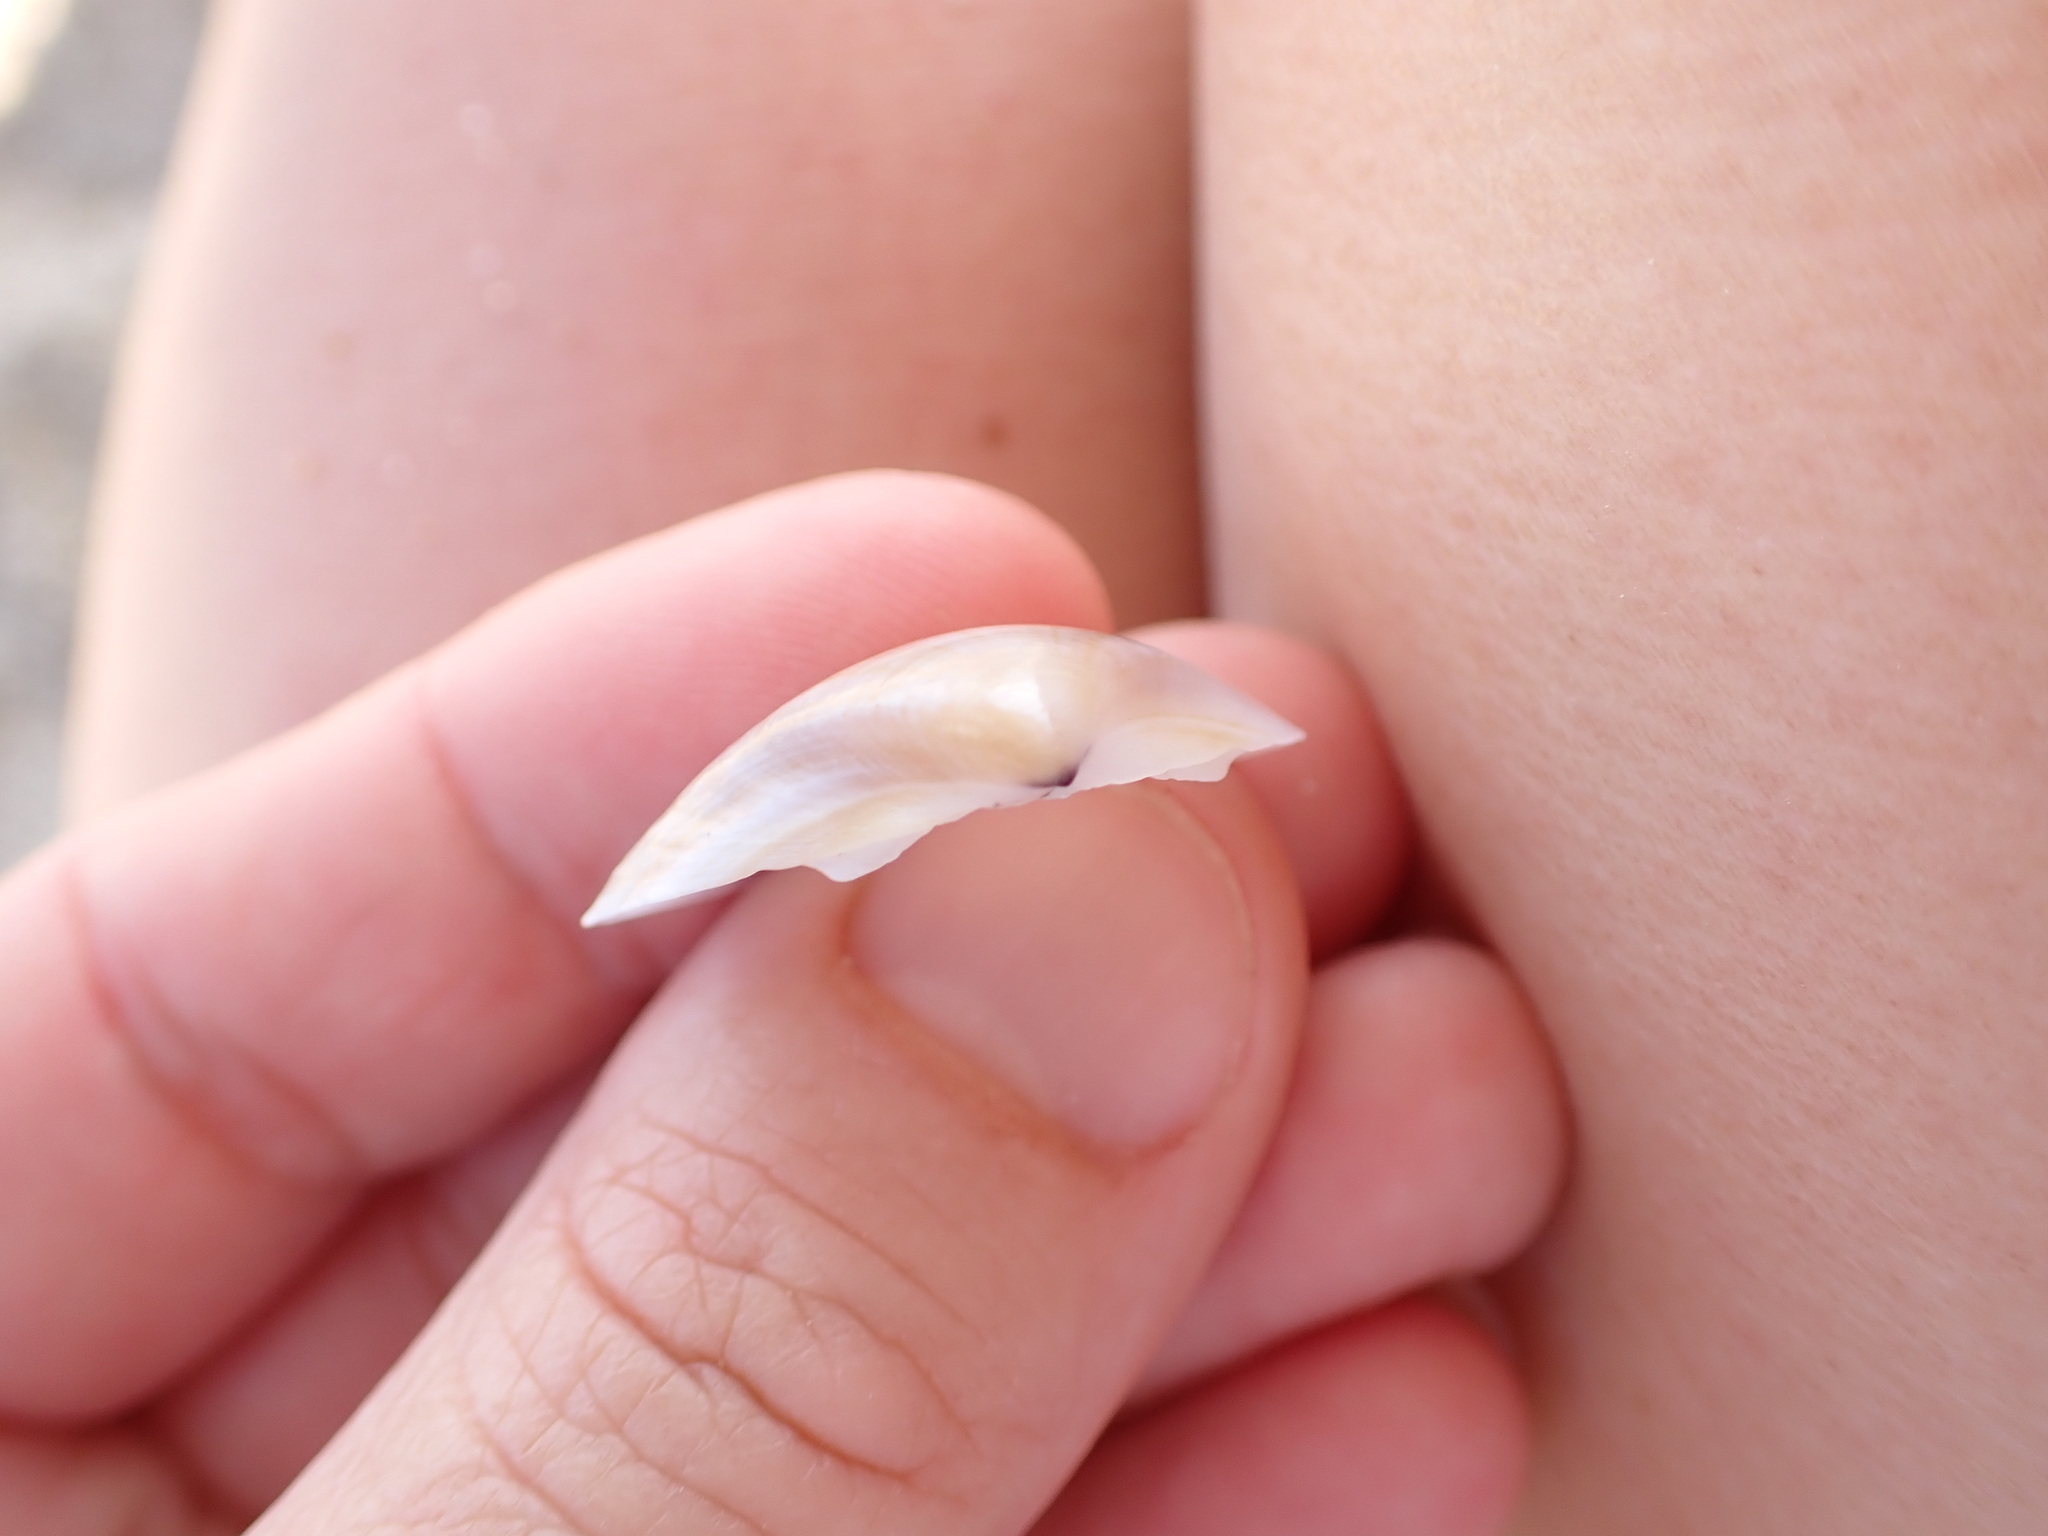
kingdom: Animalia
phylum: Mollusca
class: Bivalvia
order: Venerida
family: Mactridae
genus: Mactra
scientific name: Mactra stultorum
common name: Rayed trough shell
